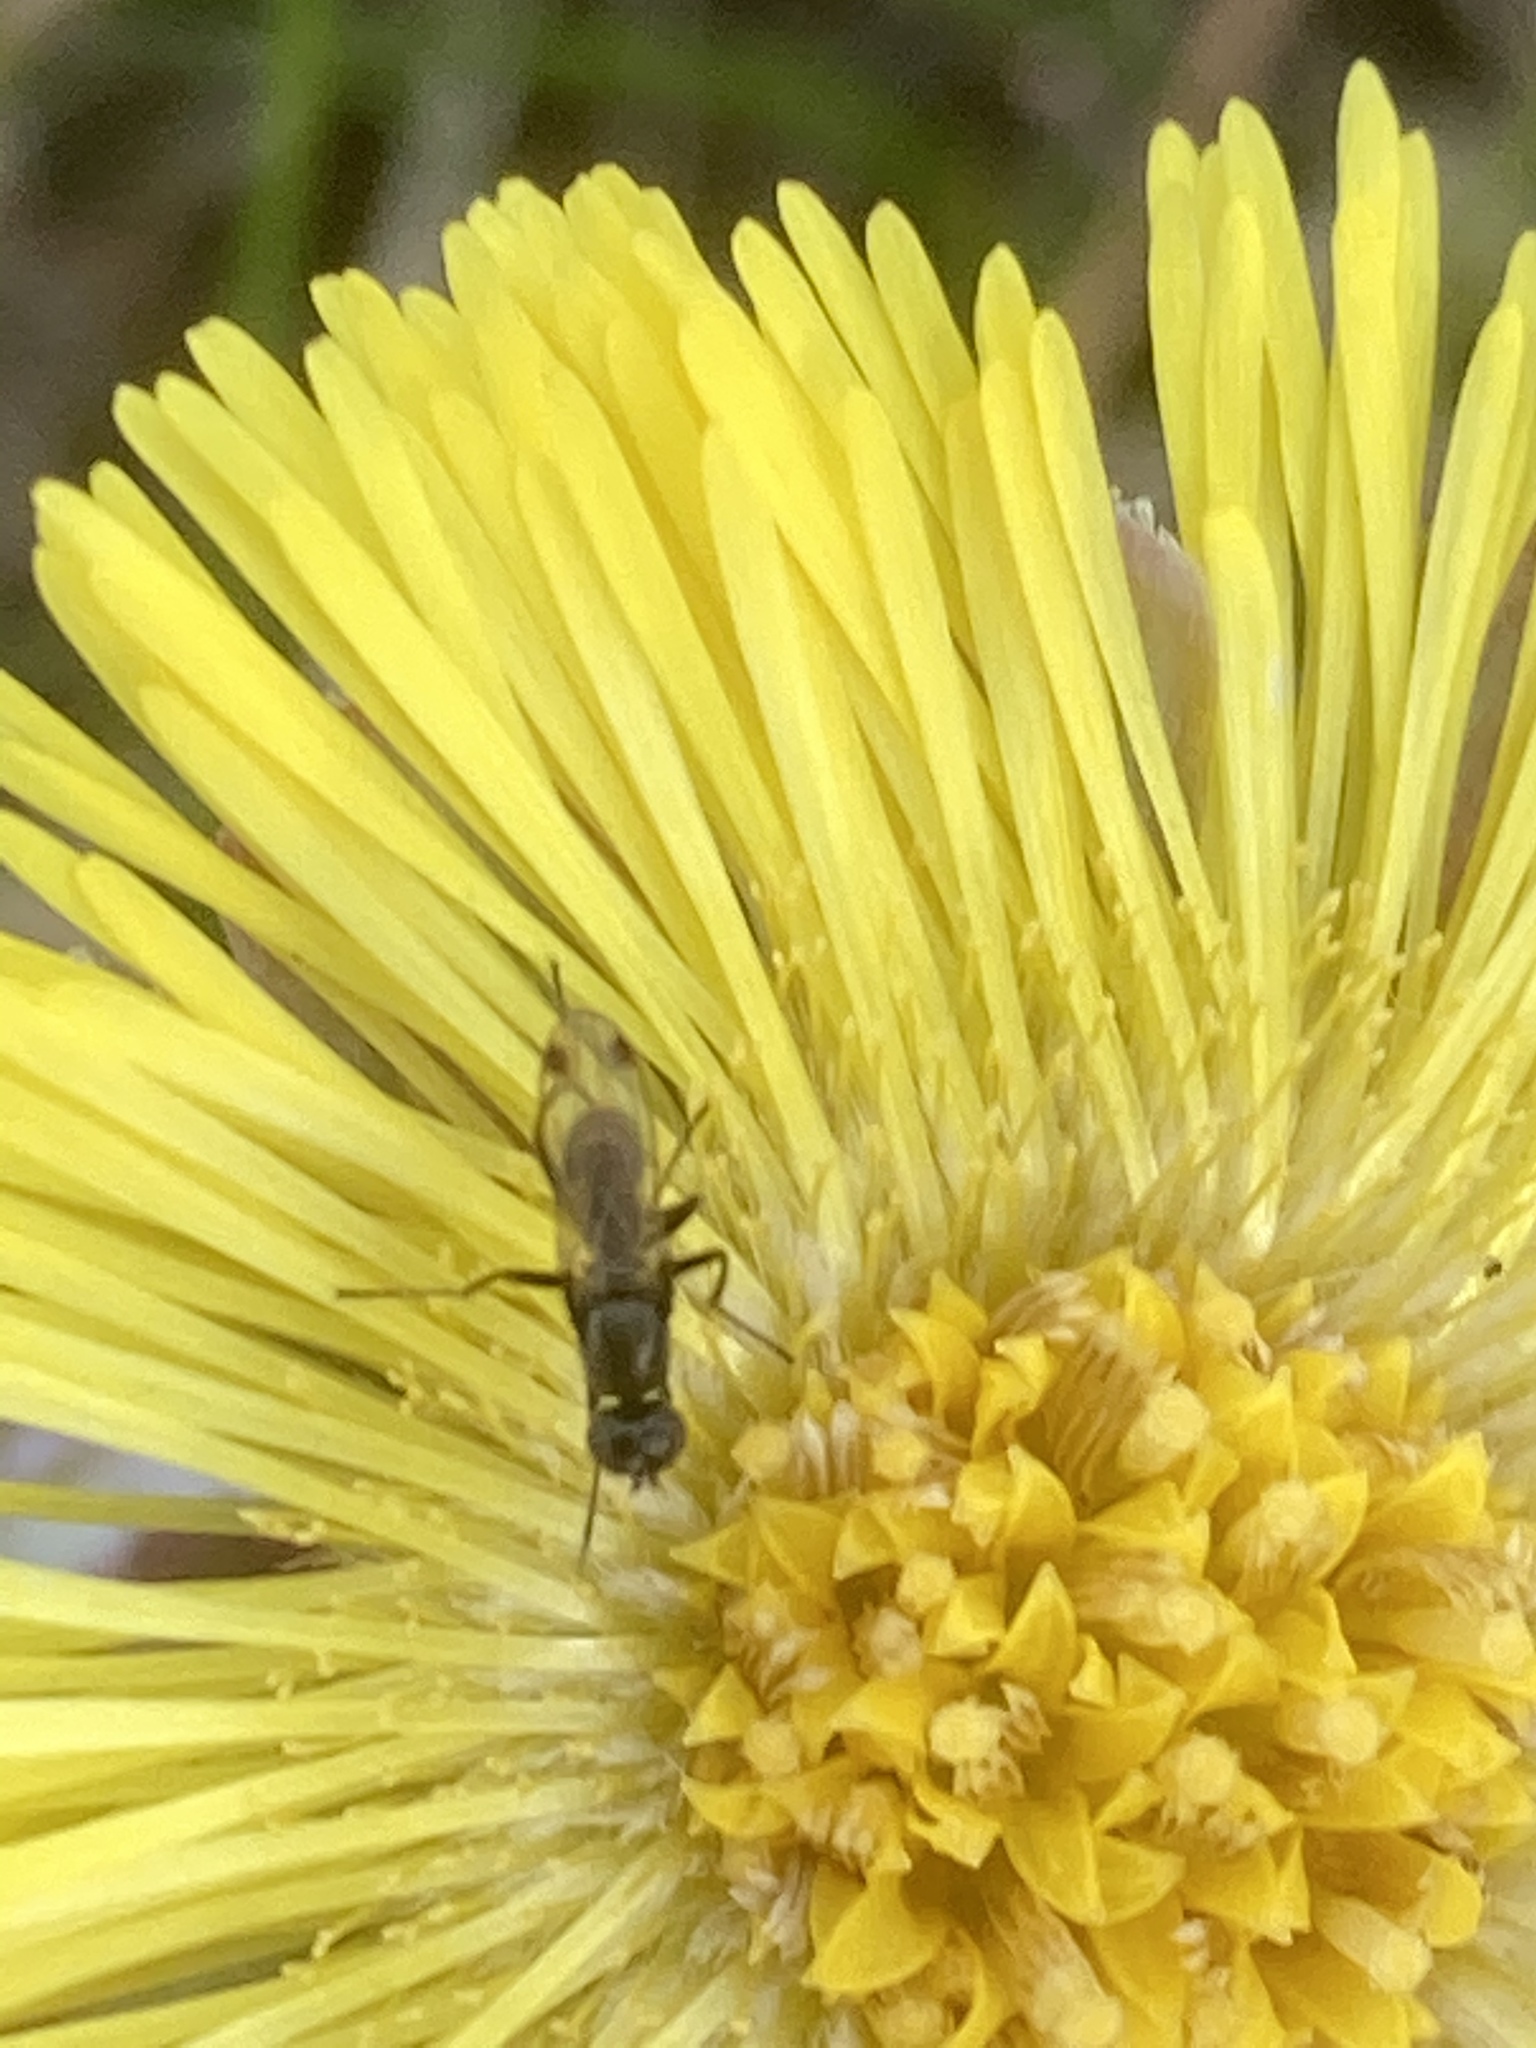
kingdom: Plantae
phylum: Tracheophyta
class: Magnoliopsida
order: Asterales
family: Asteraceae
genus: Tussilago
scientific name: Tussilago farfara
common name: Coltsfoot
